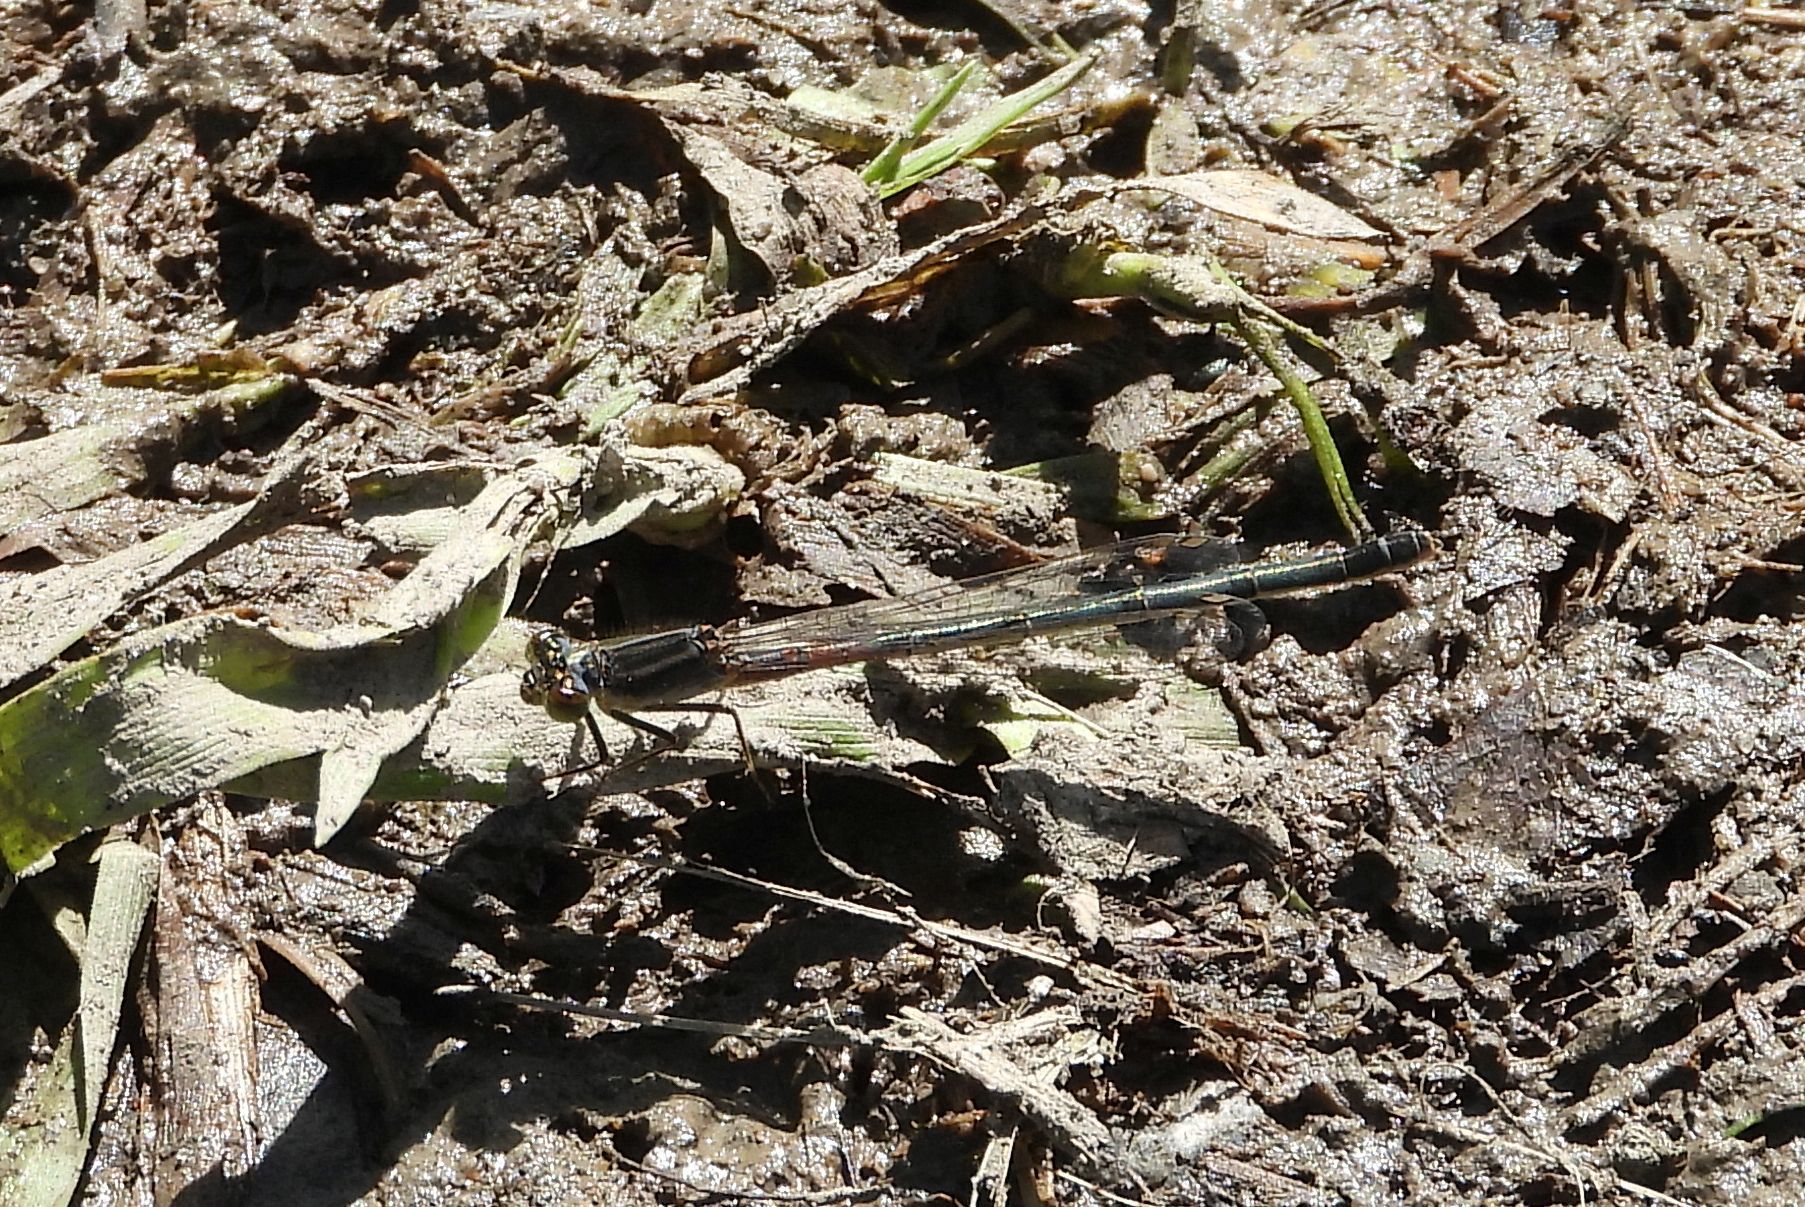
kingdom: Animalia
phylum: Arthropoda
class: Insecta
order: Odonata
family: Coenagrionidae
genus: Ischnura
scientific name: Ischnura verticalis
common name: Eastern forktail
